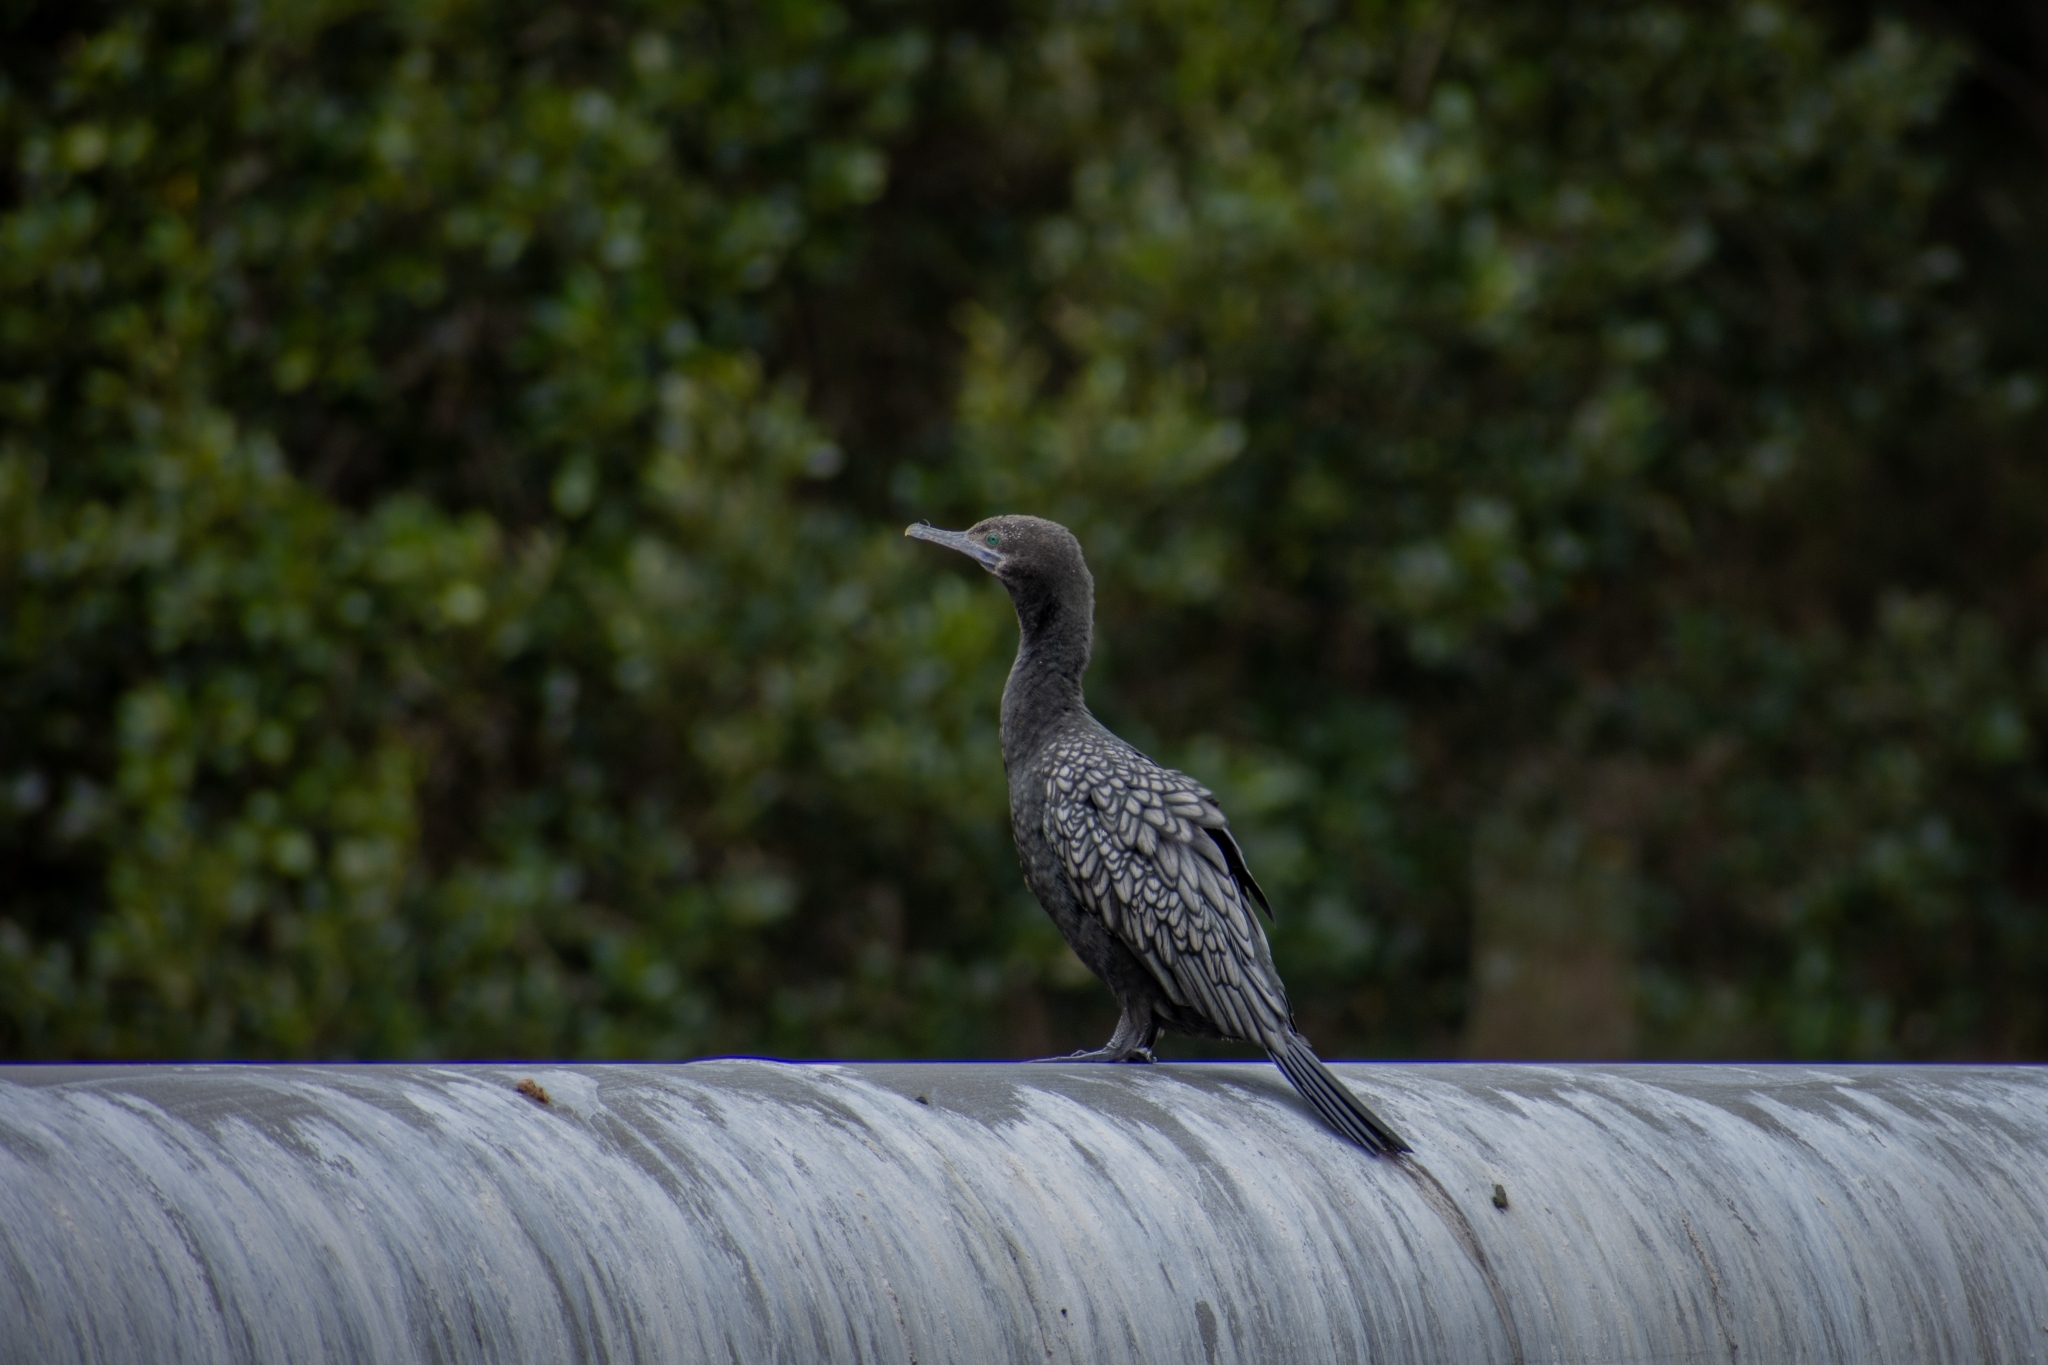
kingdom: Animalia
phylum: Chordata
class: Aves
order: Suliformes
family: Phalacrocoracidae
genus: Phalacrocorax
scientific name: Phalacrocorax sulcirostris
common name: Little black cormorant
